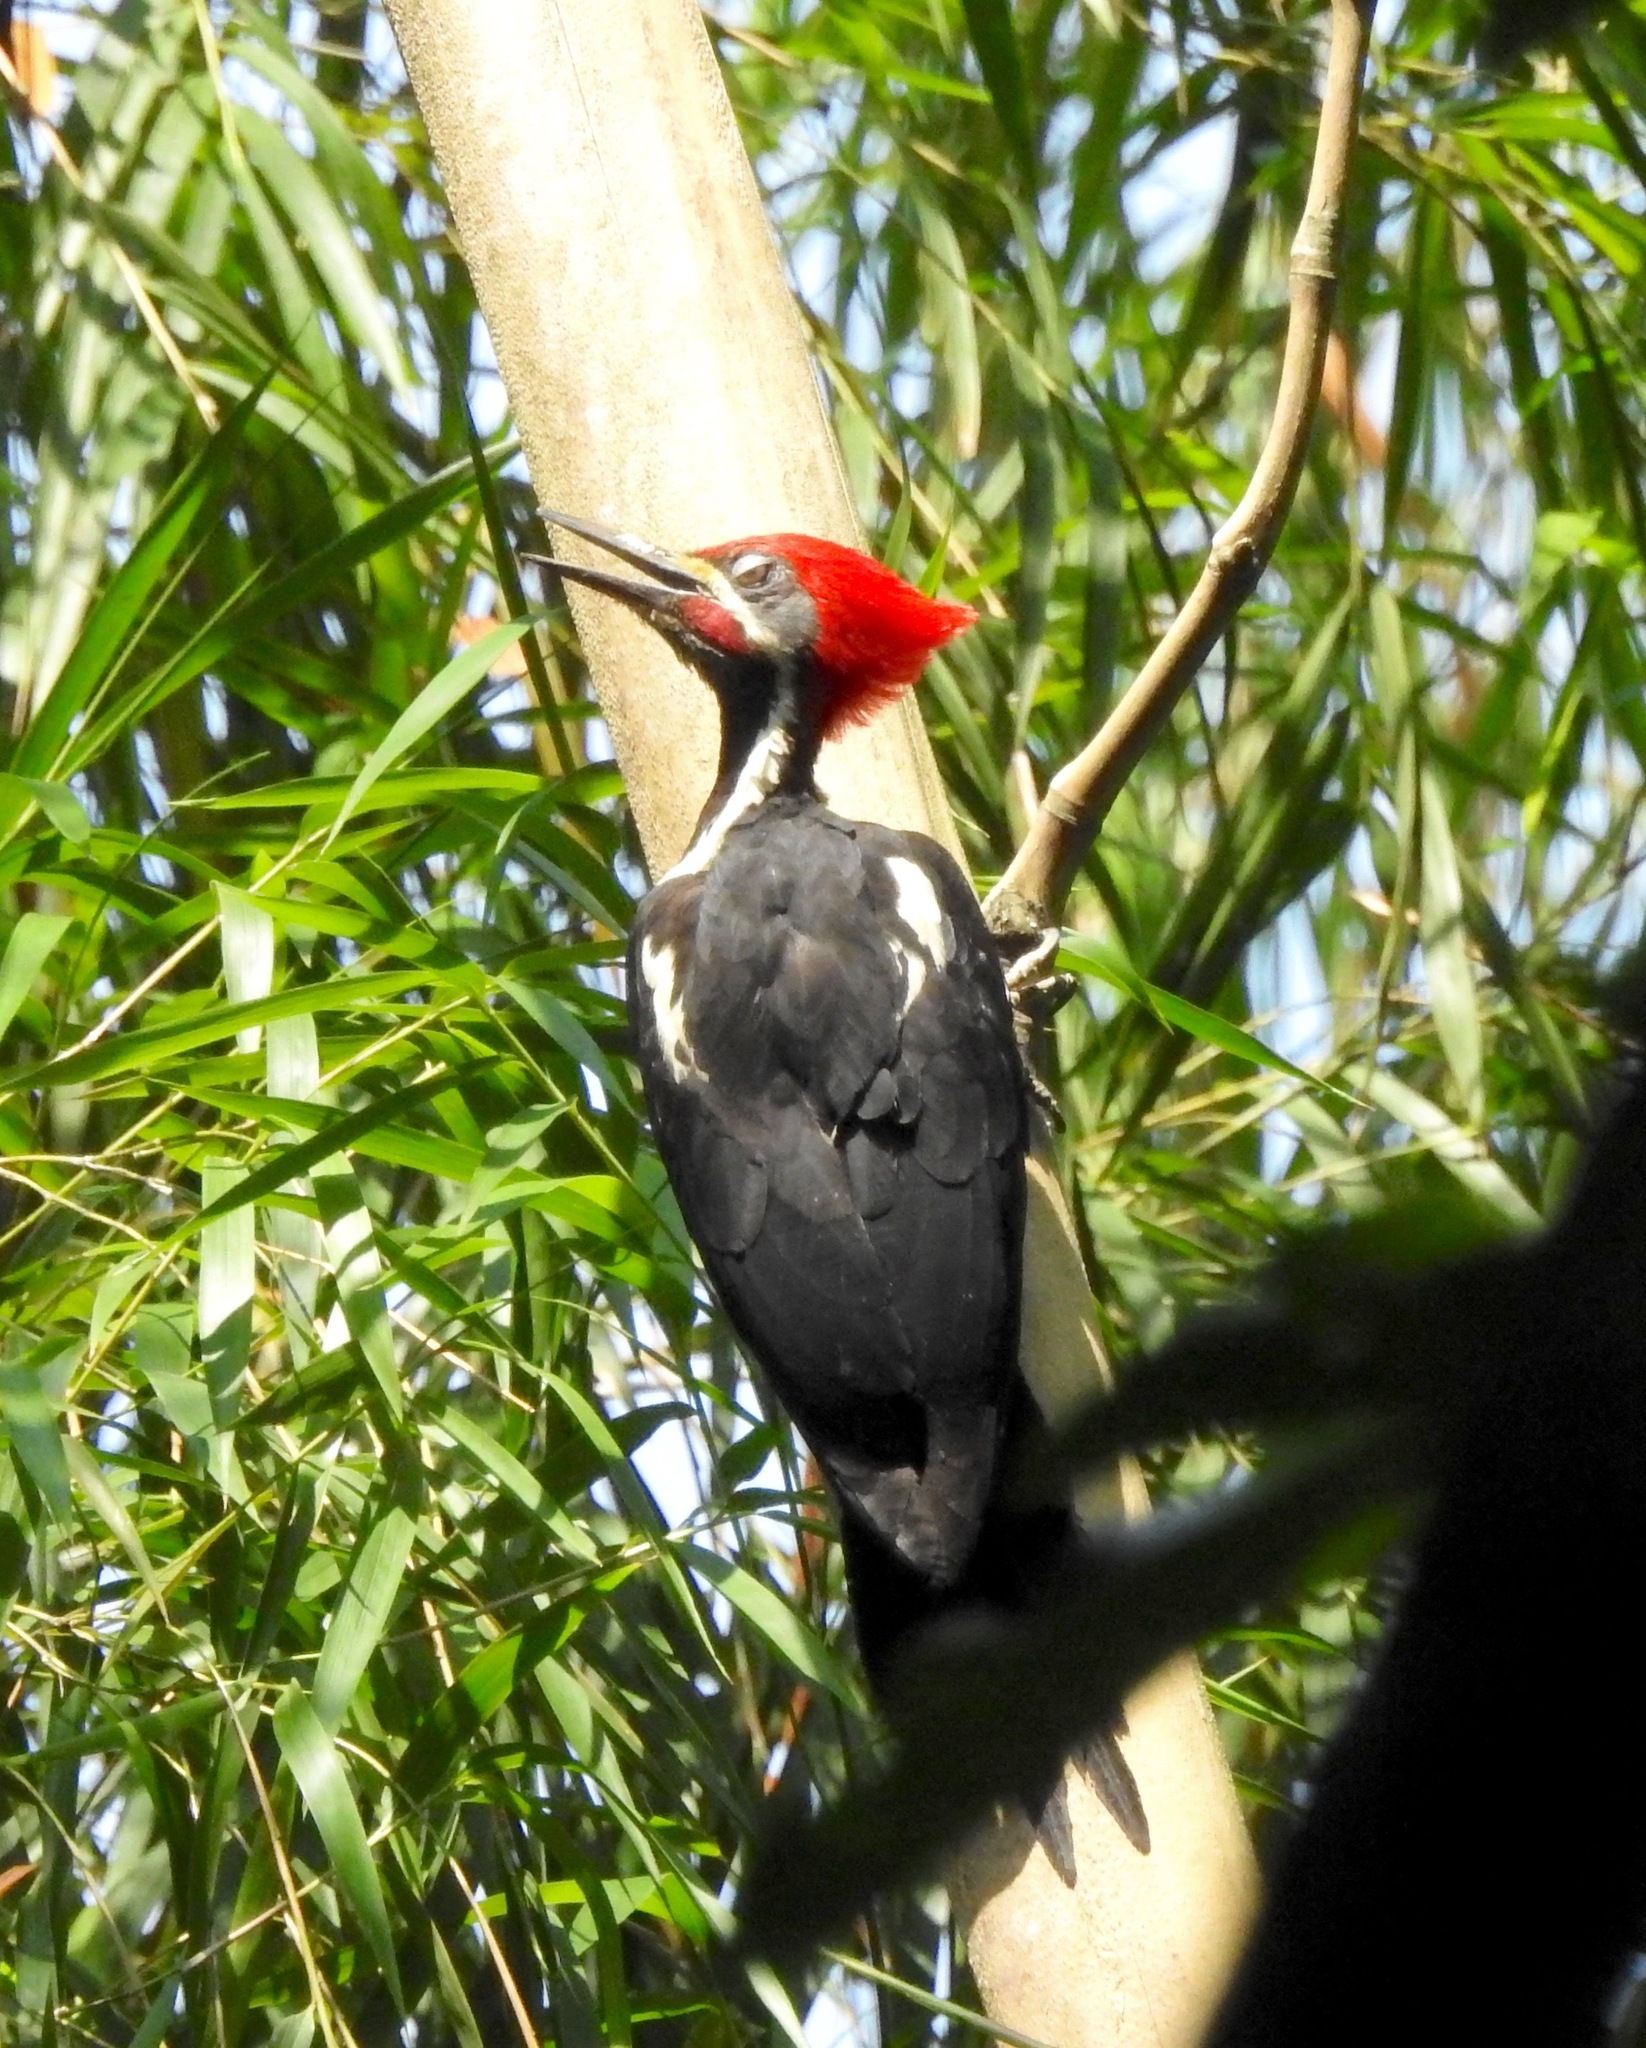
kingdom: Animalia
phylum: Chordata
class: Aves
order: Piciformes
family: Picidae
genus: Dryocopus
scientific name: Dryocopus lineatus
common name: Lineated woodpecker
